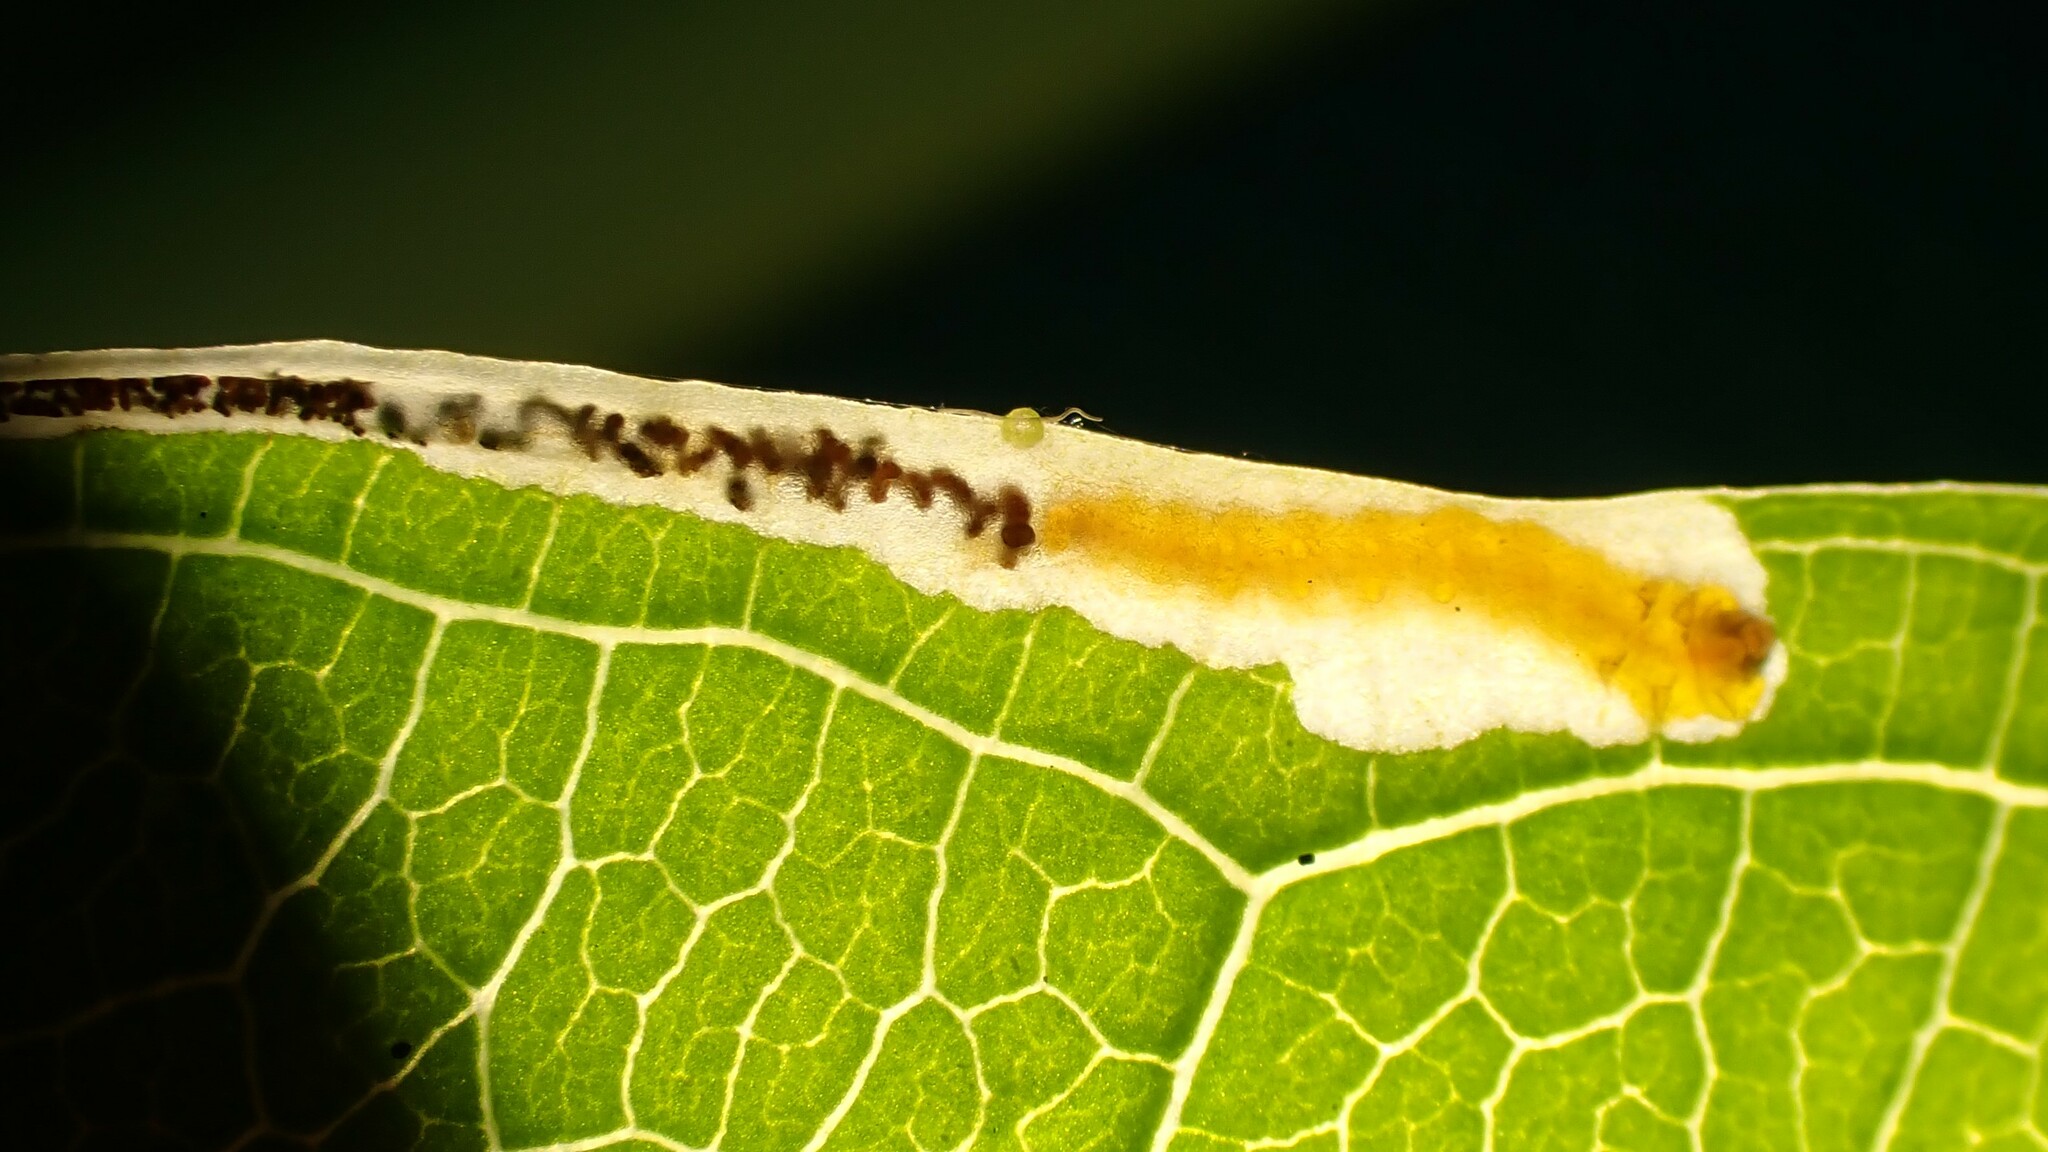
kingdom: Animalia
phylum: Arthropoda
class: Insecta
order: Lepidoptera
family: Momphidae
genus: Mompha
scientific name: Mompha raschkiella
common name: Little cosmet
